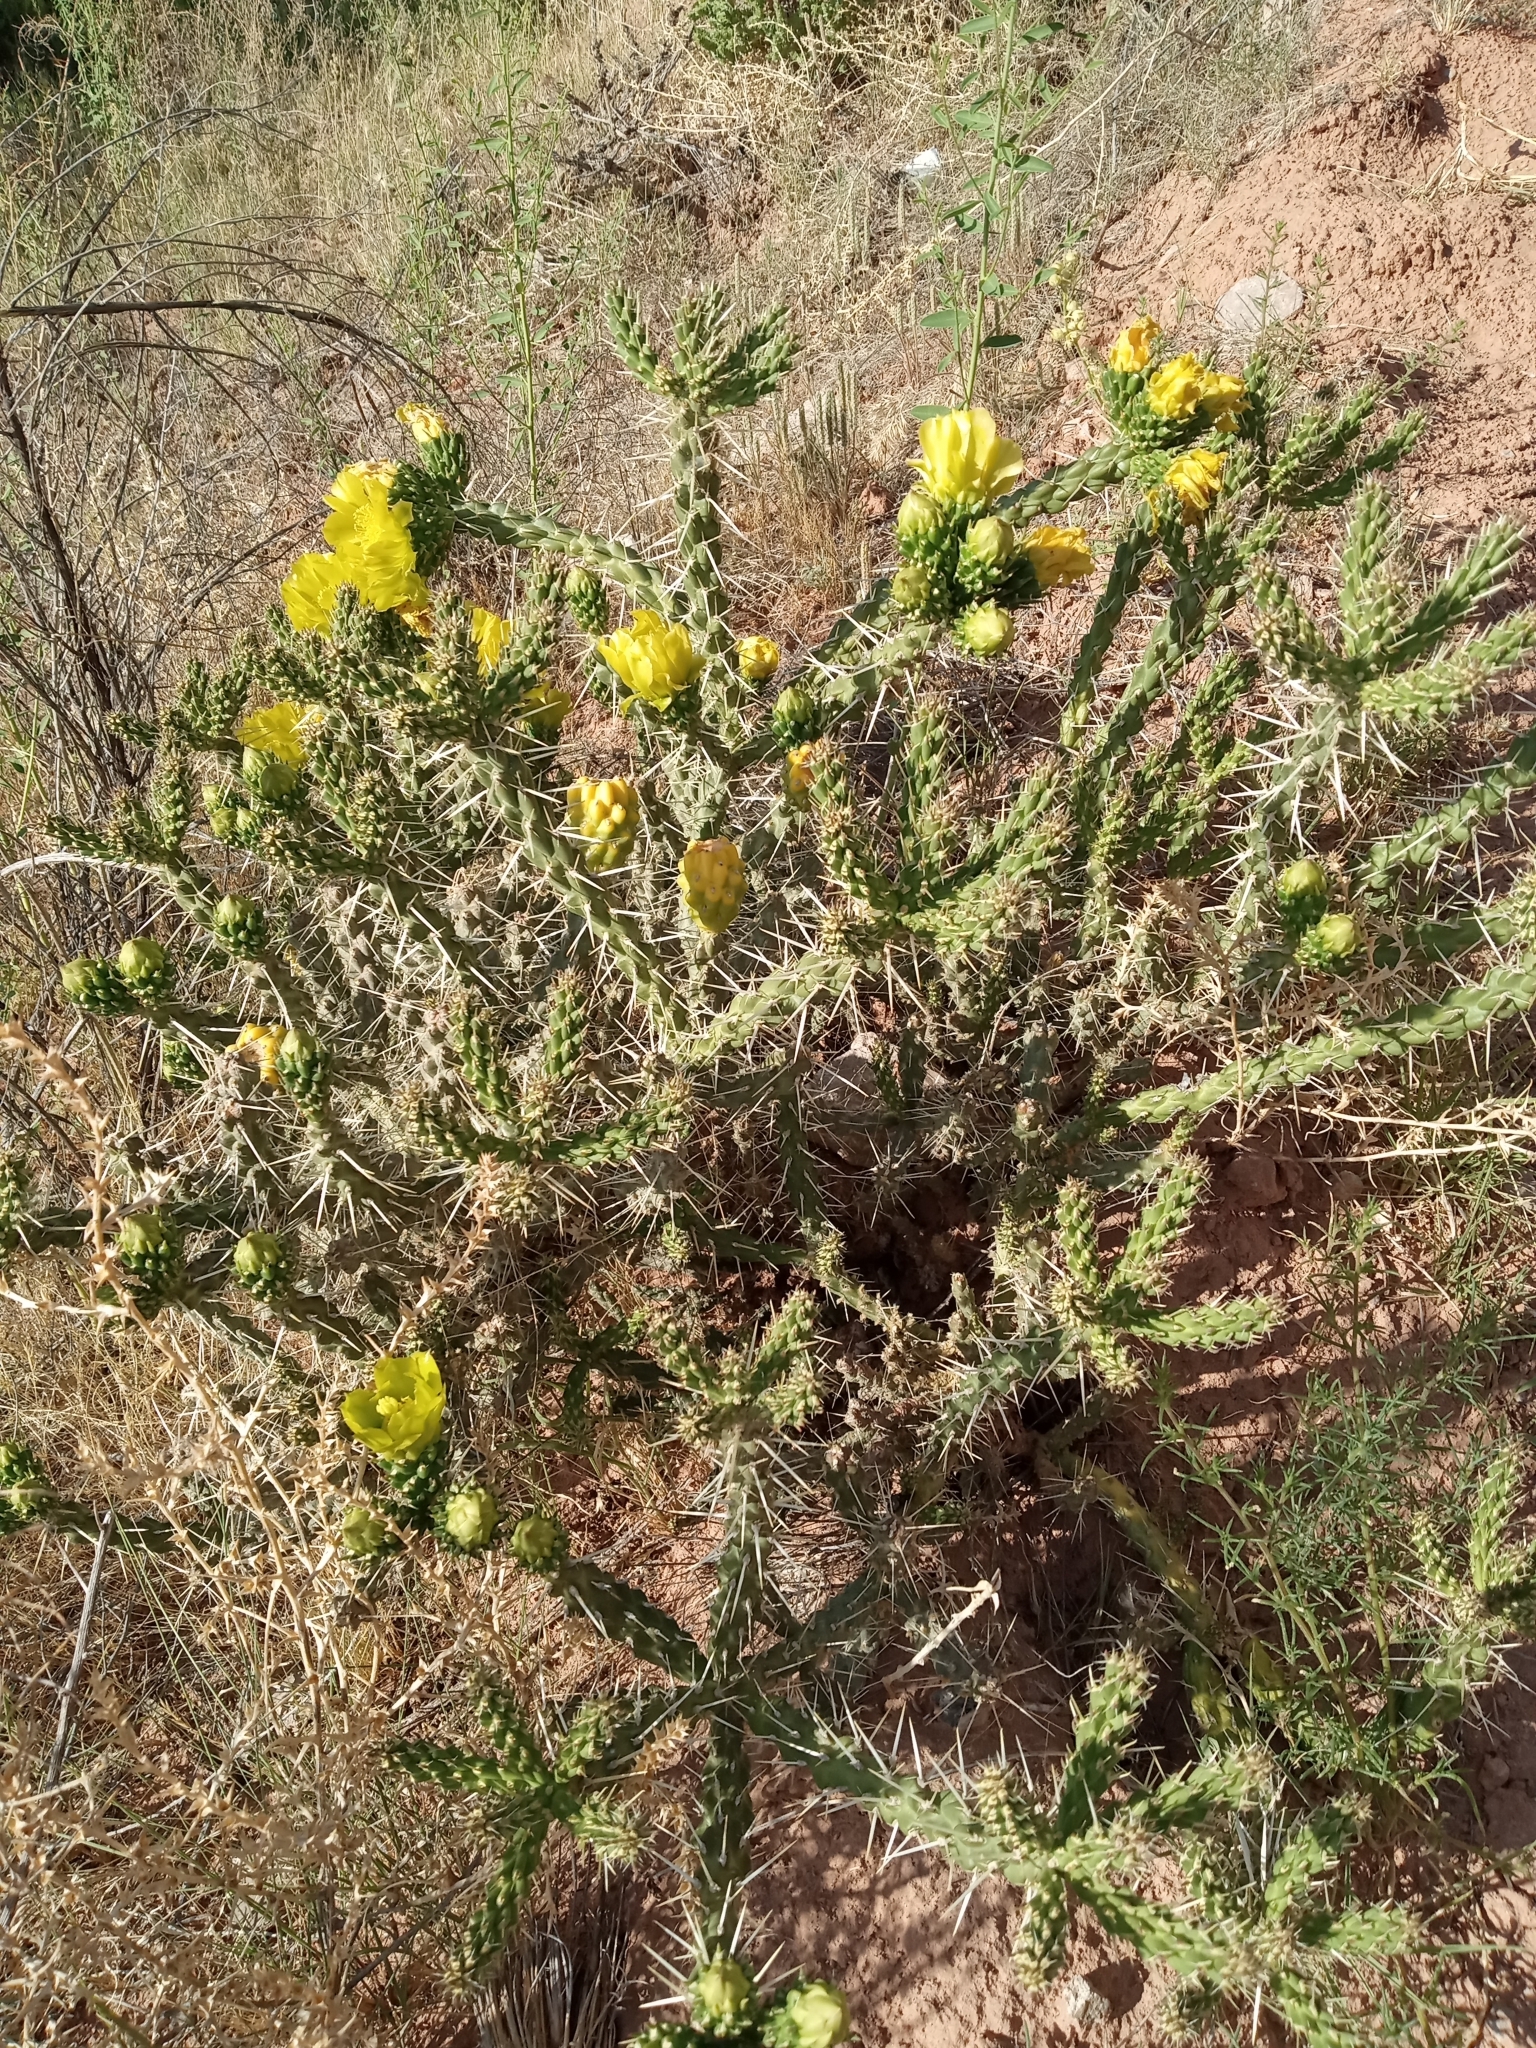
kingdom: Plantae
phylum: Tracheophyta
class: Magnoliopsida
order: Caryophyllales
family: Cactaceae
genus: Cylindropuntia
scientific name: Cylindropuntia whipplei
